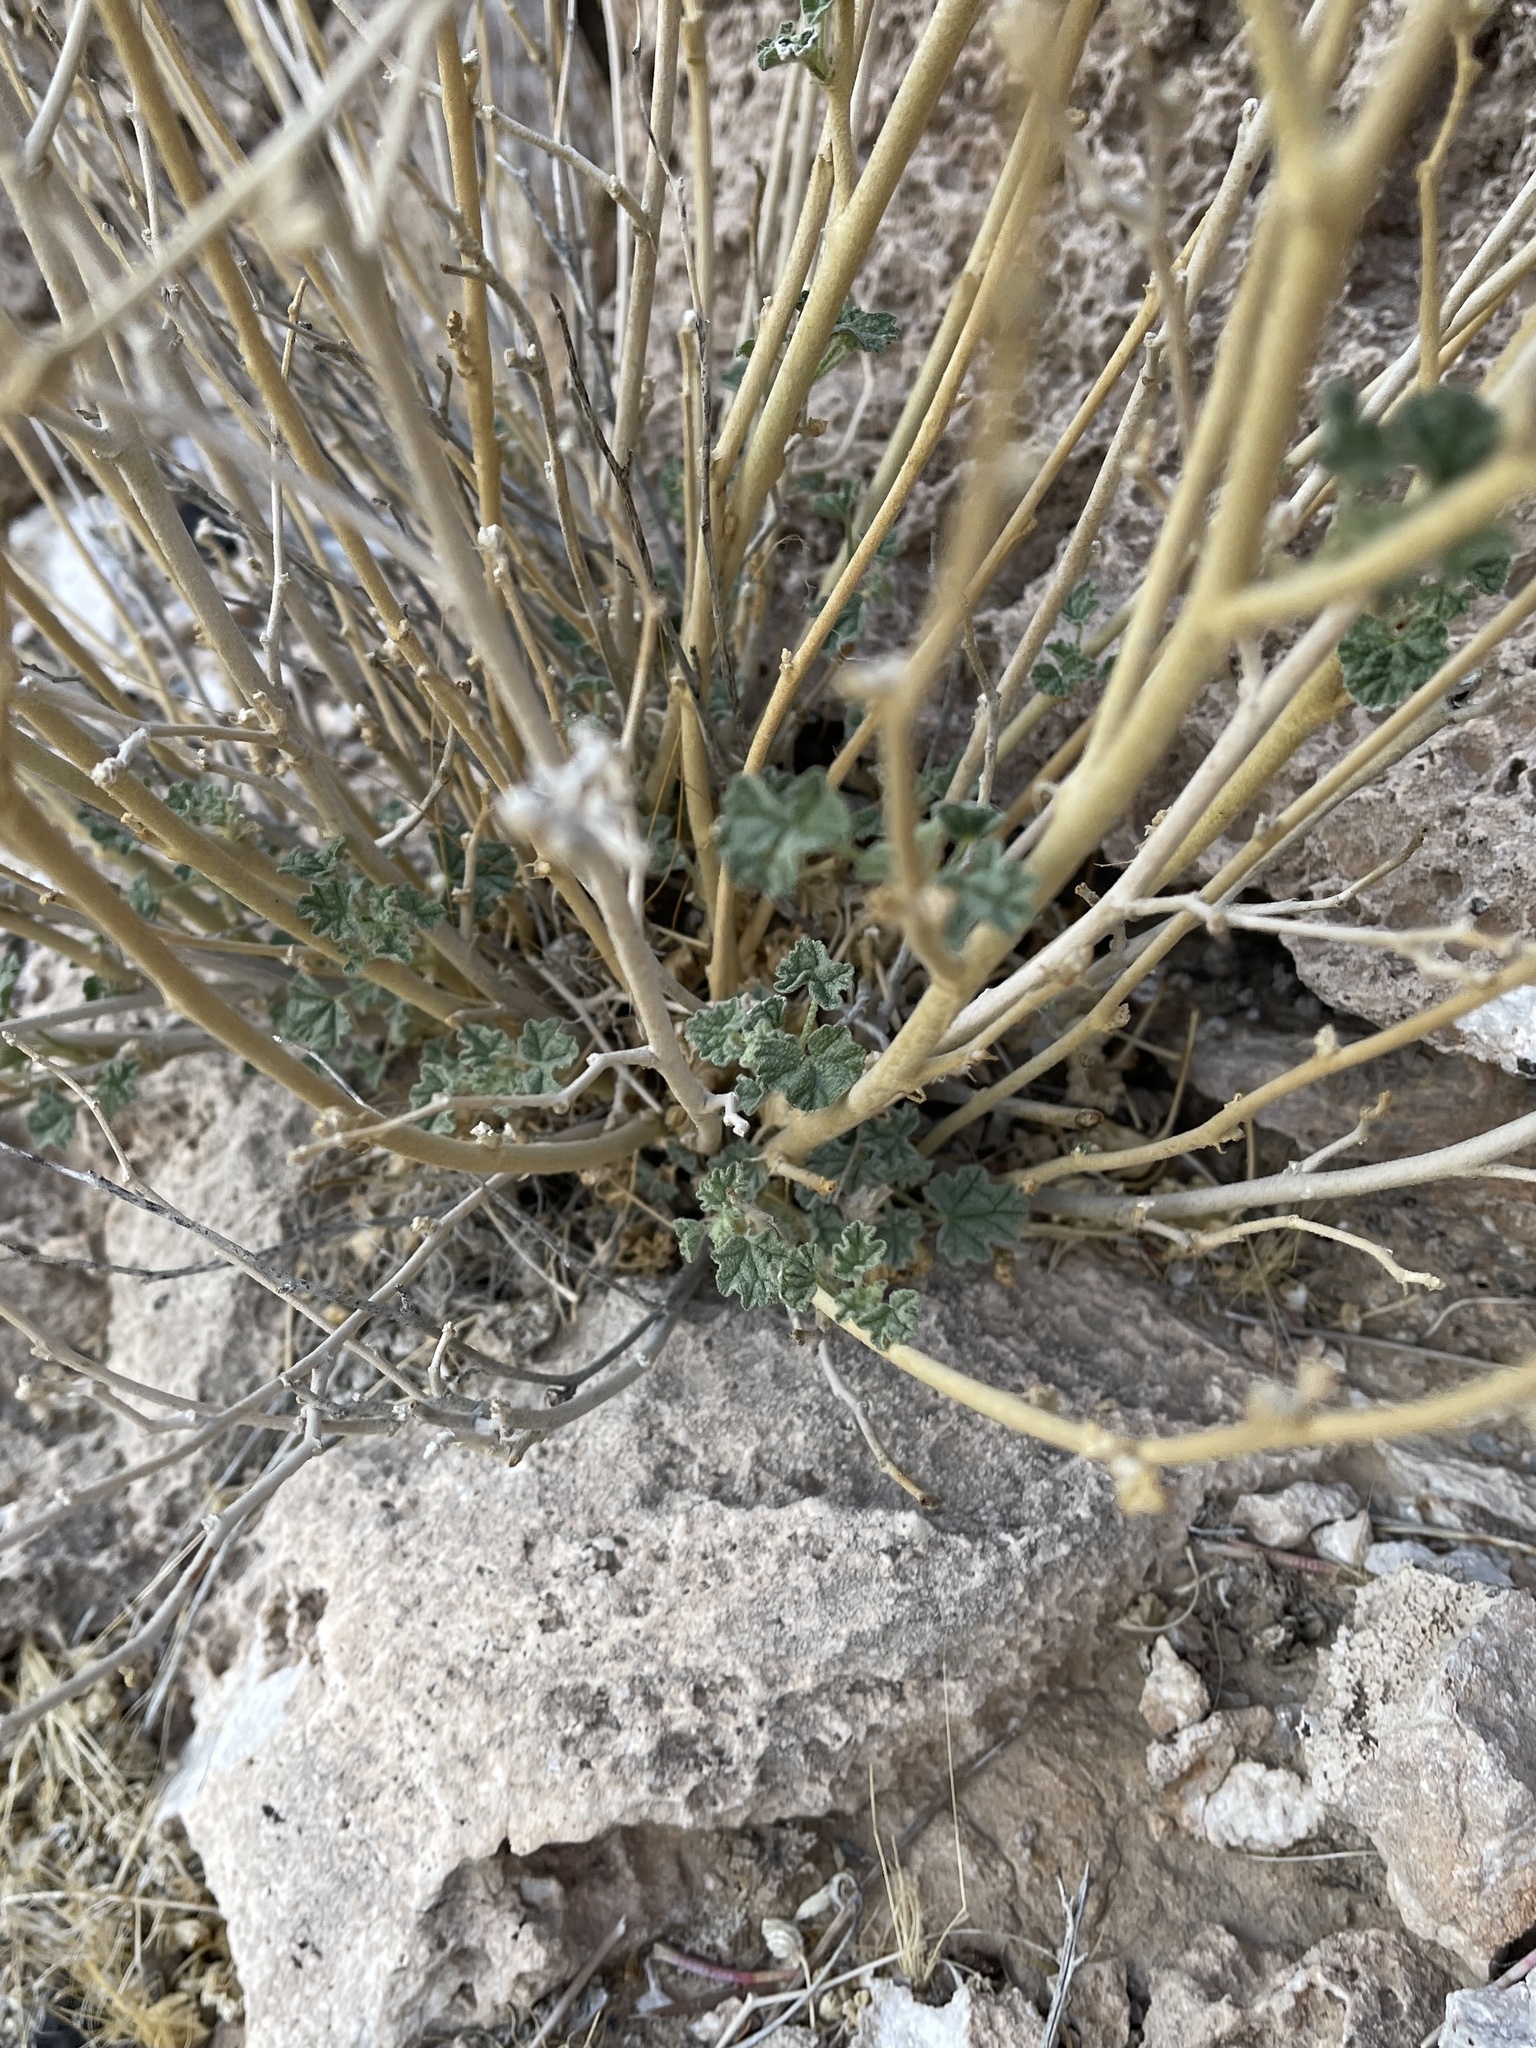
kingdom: Plantae
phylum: Tracheophyta
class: Magnoliopsida
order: Malvales
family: Malvaceae
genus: Sphaeralcea
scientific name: Sphaeralcea ambigua
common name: Apricot globe-mallow
